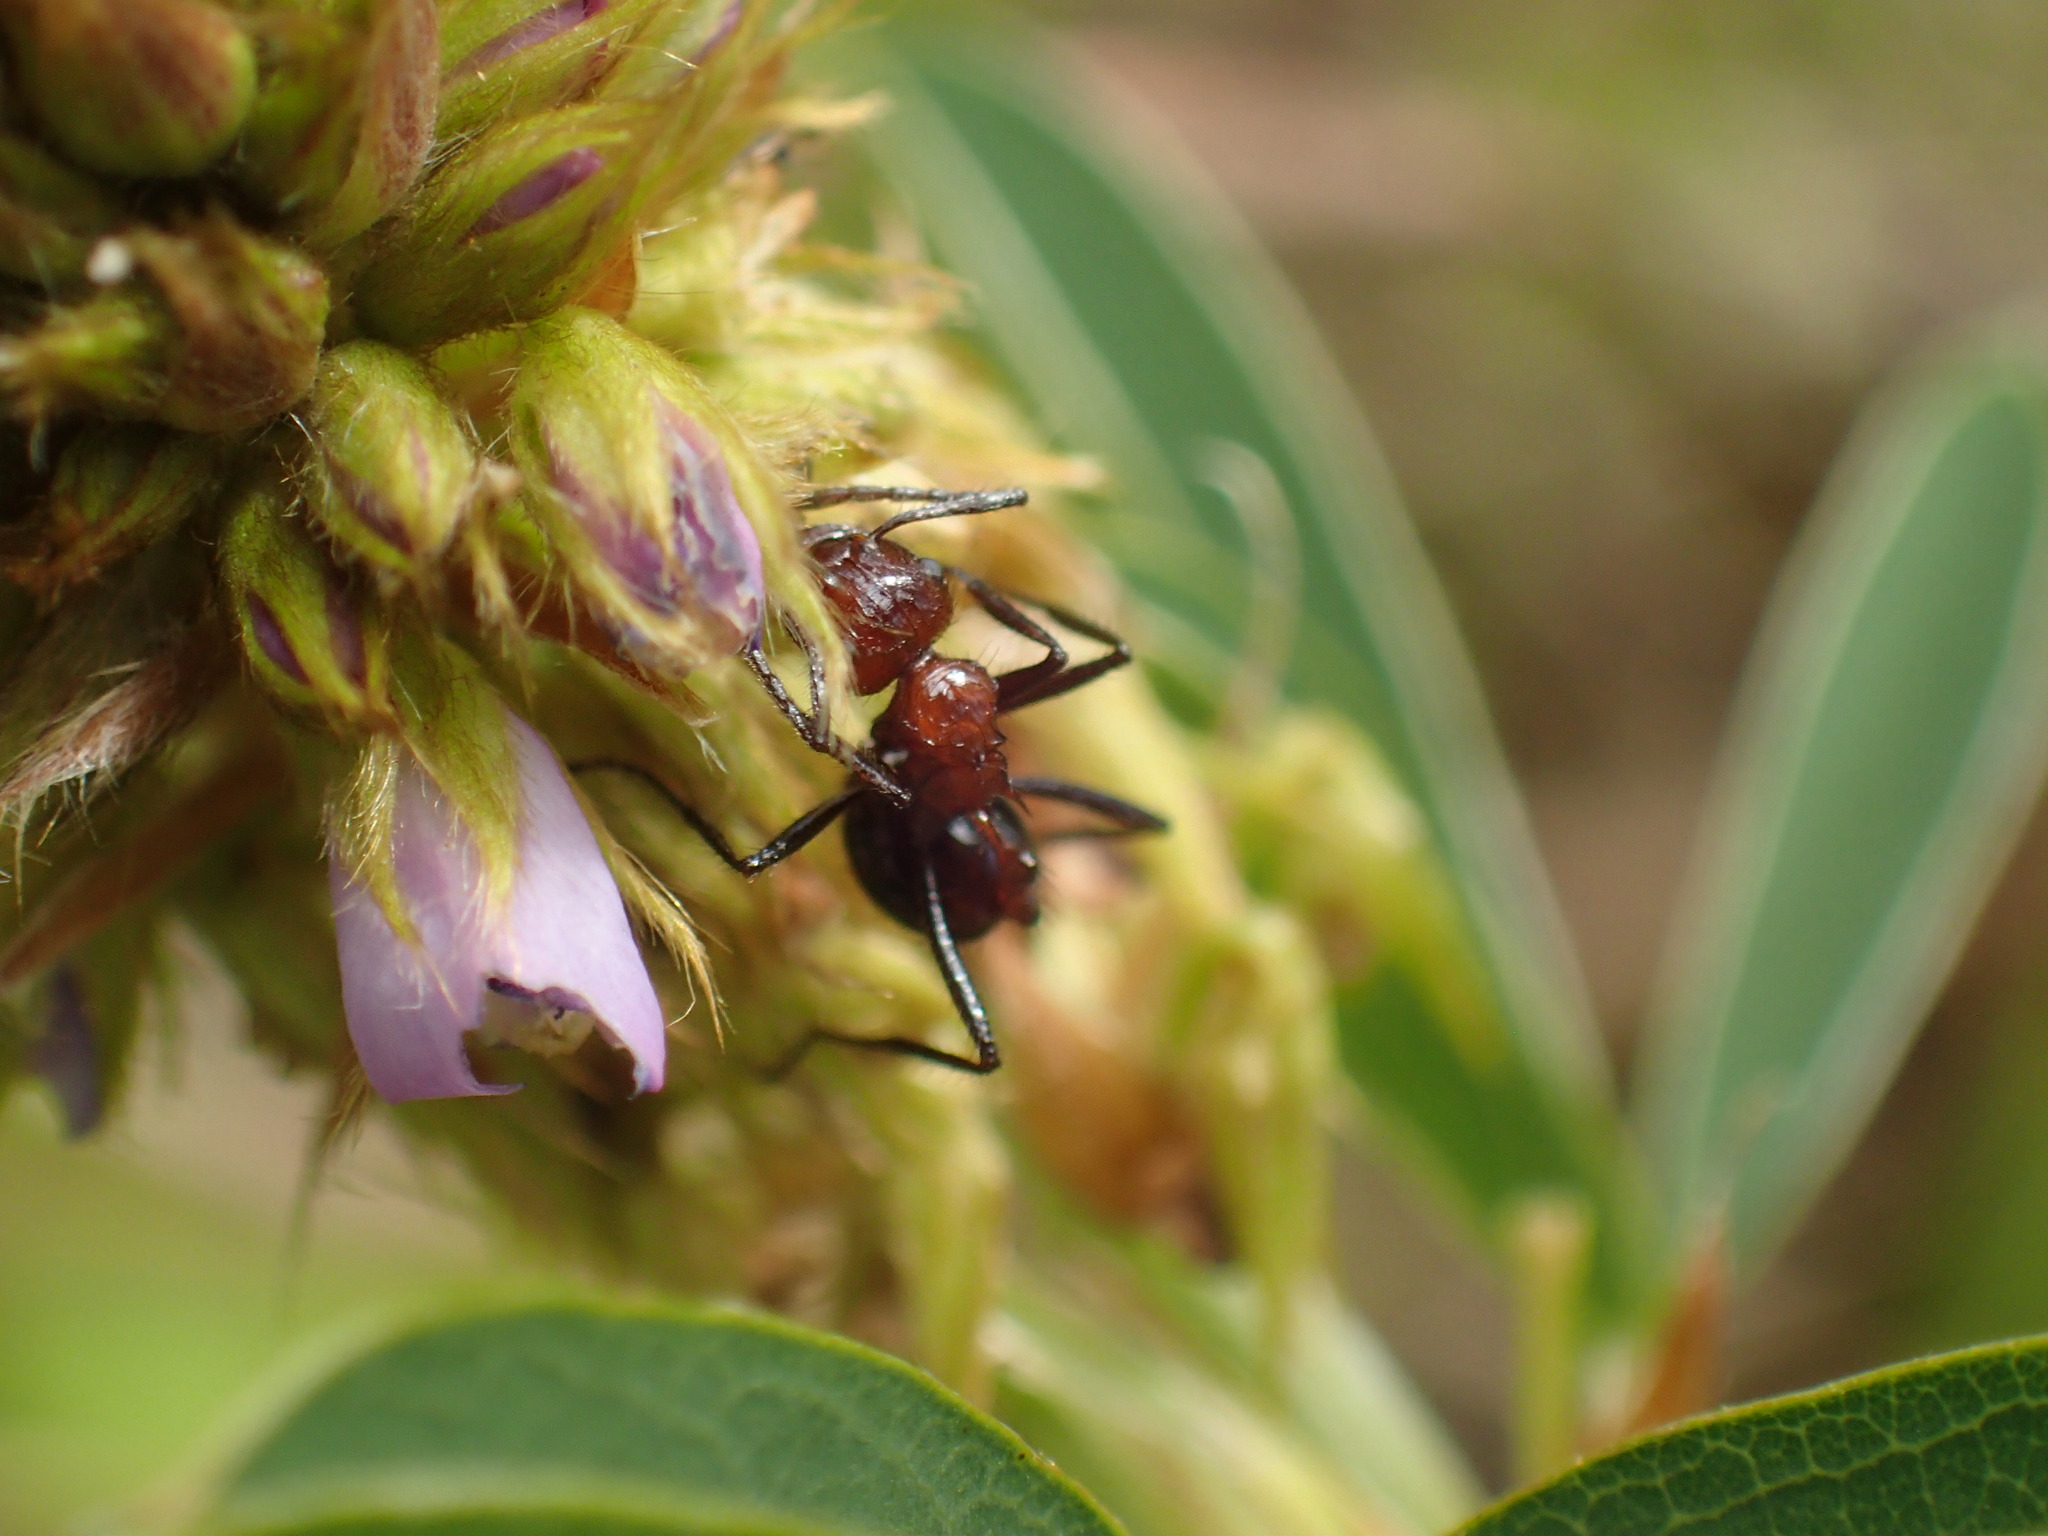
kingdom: Animalia
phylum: Arthropoda
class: Insecta
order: Hymenoptera
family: Formicidae
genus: Myrmicaria
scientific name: Myrmicaria natalensis
